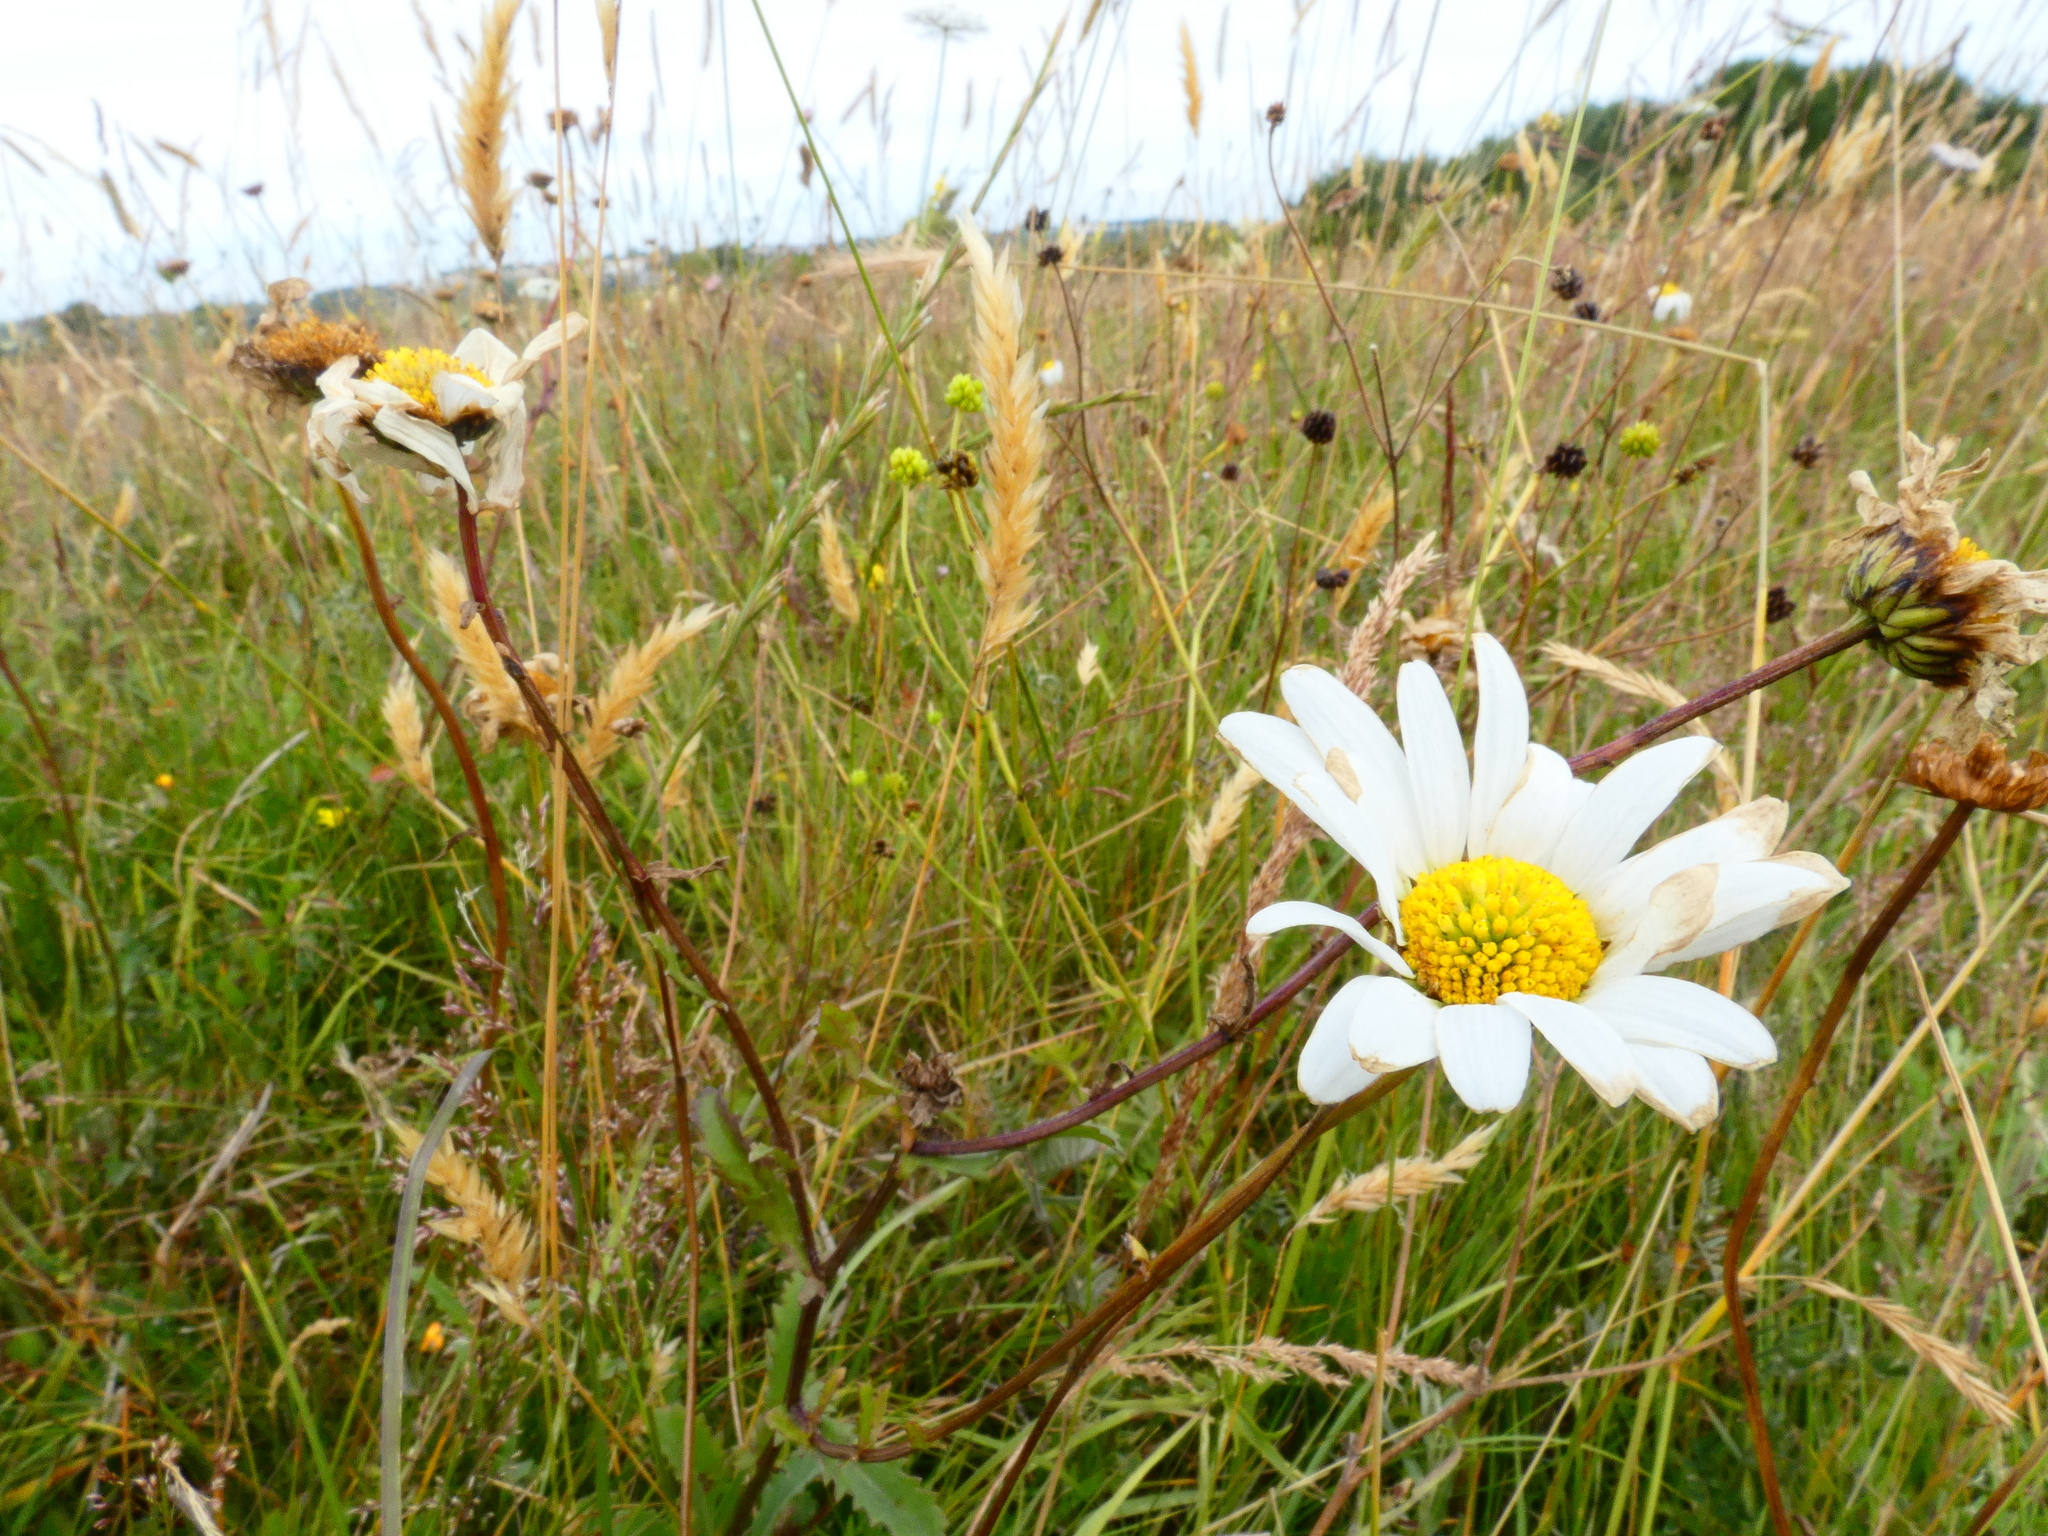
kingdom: Plantae
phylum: Tracheophyta
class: Magnoliopsida
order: Asterales
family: Asteraceae
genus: Leucanthemum
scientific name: Leucanthemum vulgare
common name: Oxeye daisy
